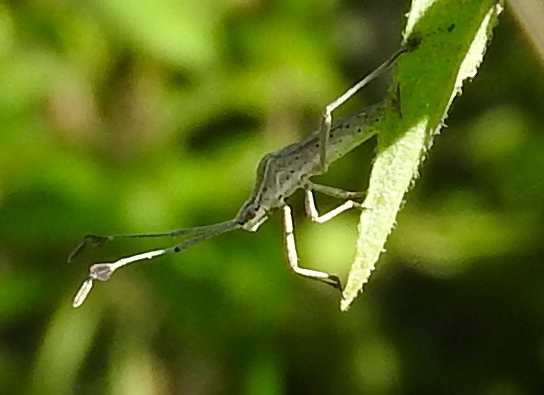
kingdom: Animalia
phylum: Arthropoda
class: Insecta
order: Hemiptera
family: Coreidae
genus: Chariesterus
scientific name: Chariesterus
